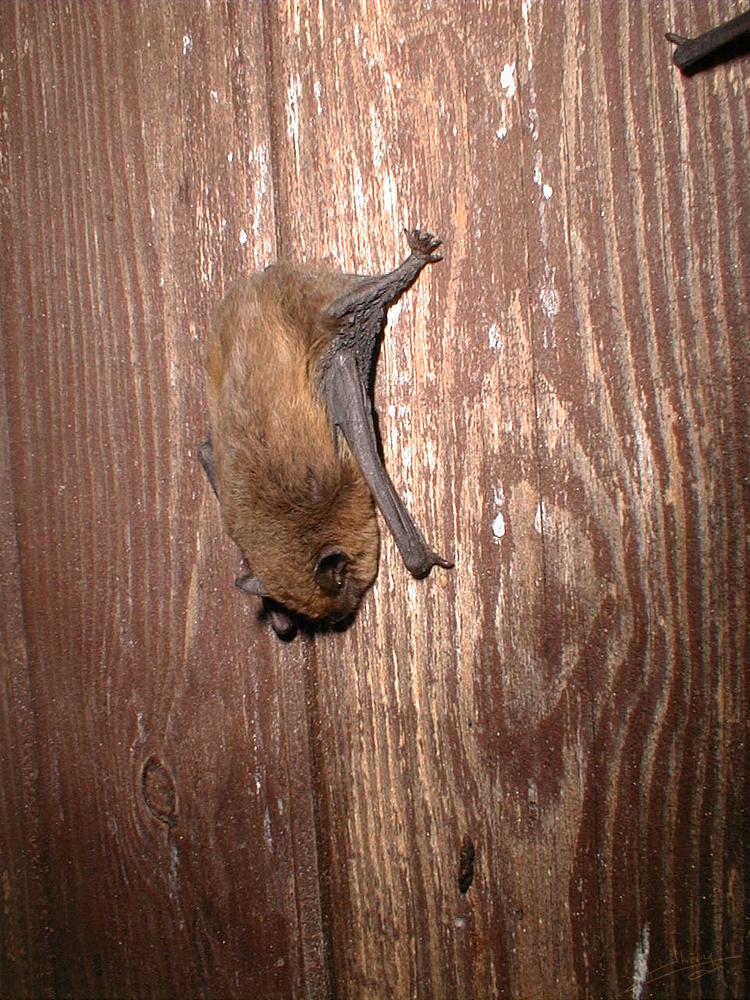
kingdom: Animalia
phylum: Chordata
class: Mammalia
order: Chiroptera
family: Vespertilionidae
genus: Pipistrellus
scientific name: Pipistrellus pipistrellus
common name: Common pipistrelle
